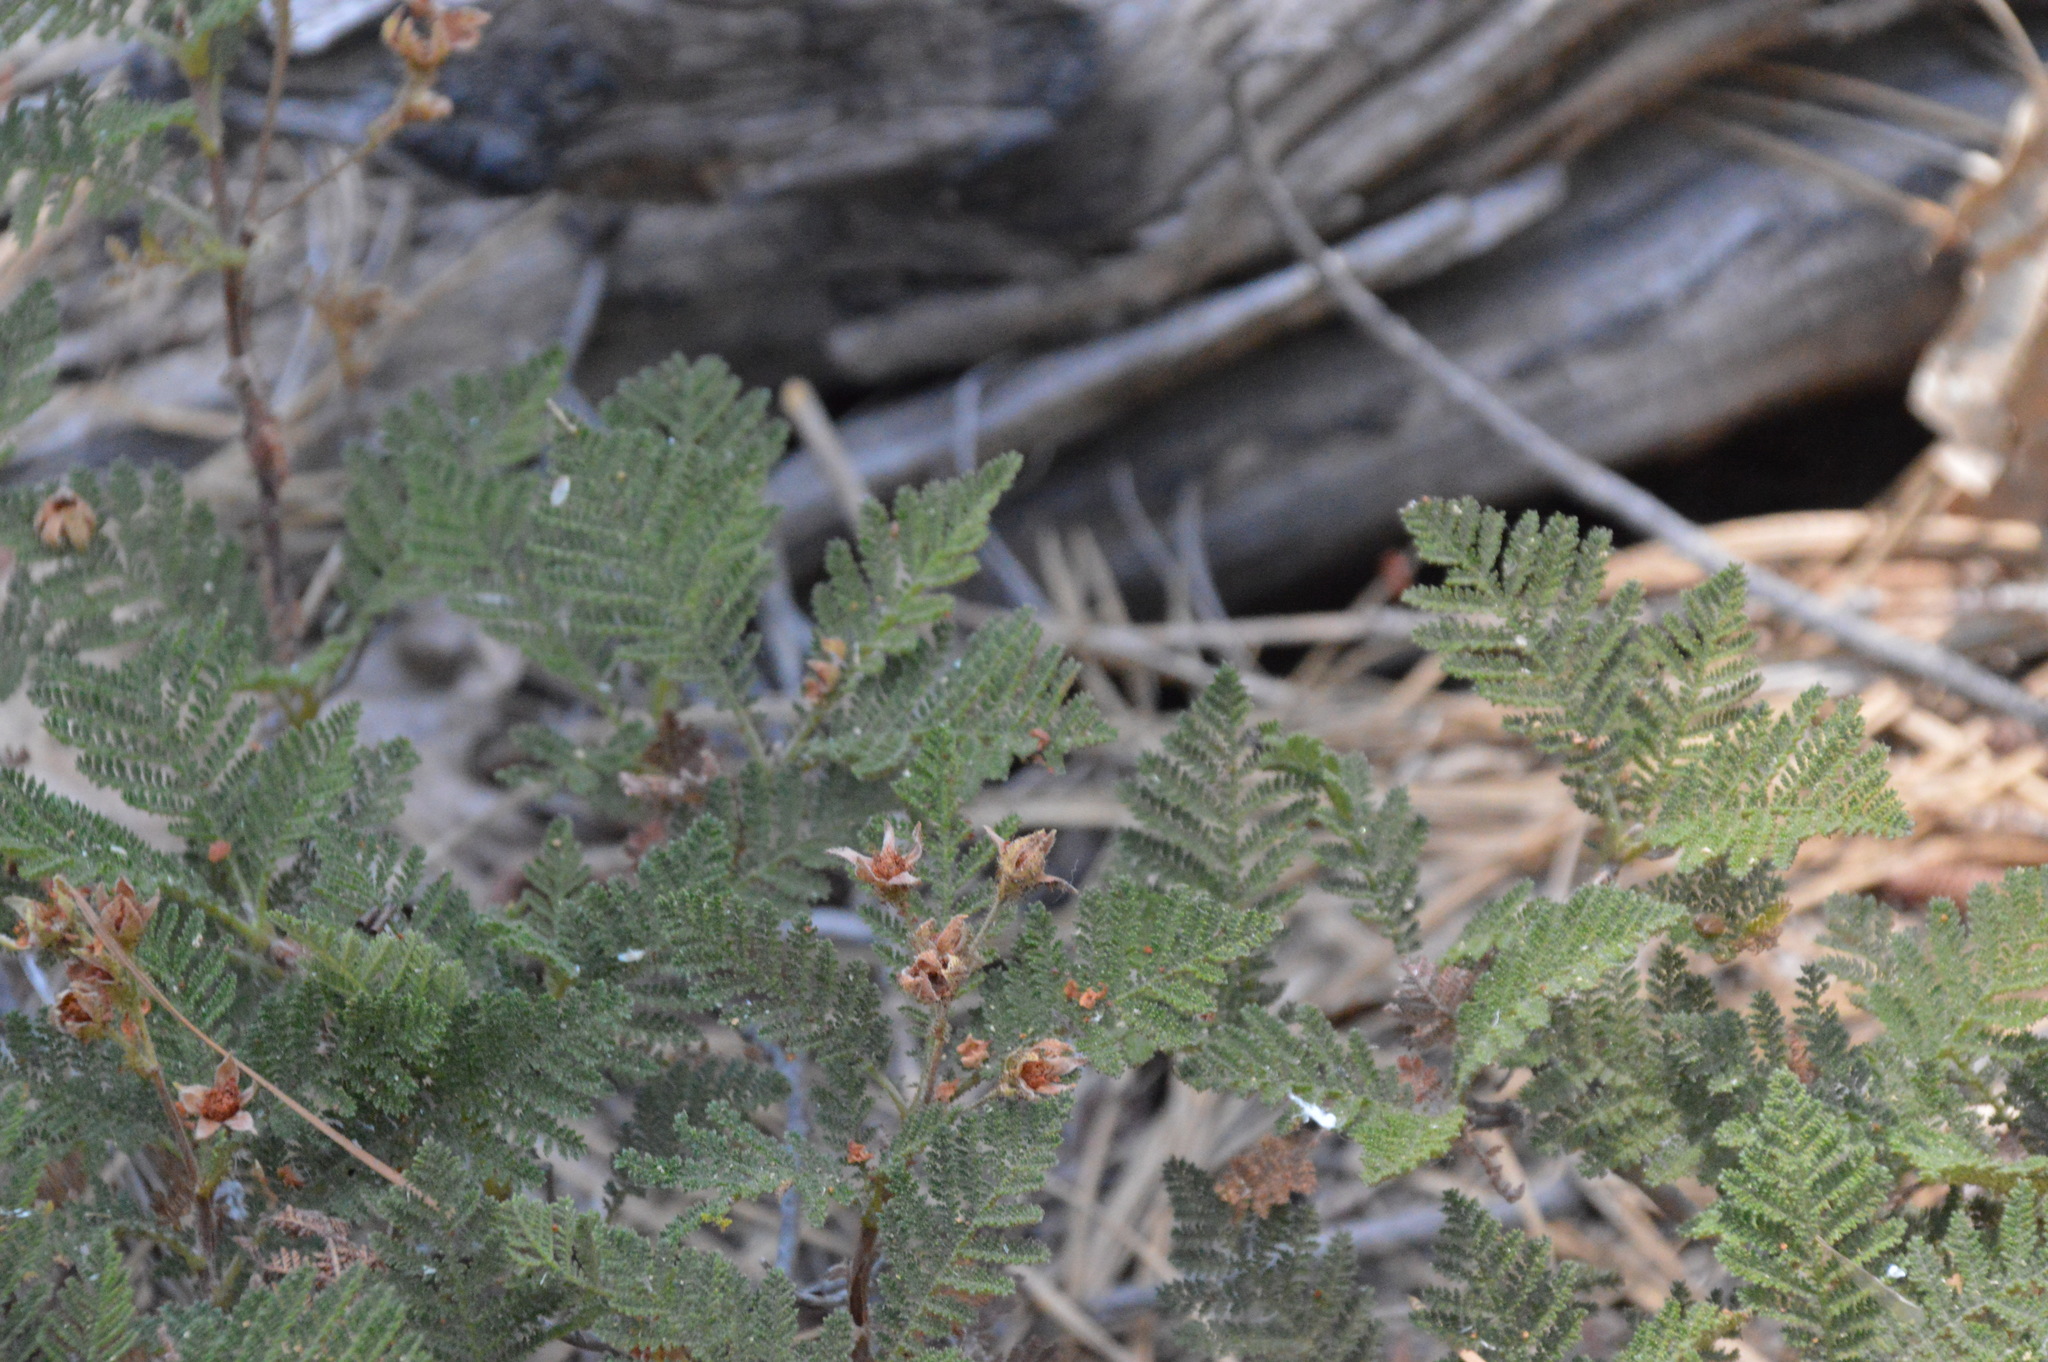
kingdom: Plantae
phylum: Tracheophyta
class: Magnoliopsida
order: Rosales
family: Rosaceae
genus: Chamaebatia
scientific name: Chamaebatia foliolosa
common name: Mountain misery
